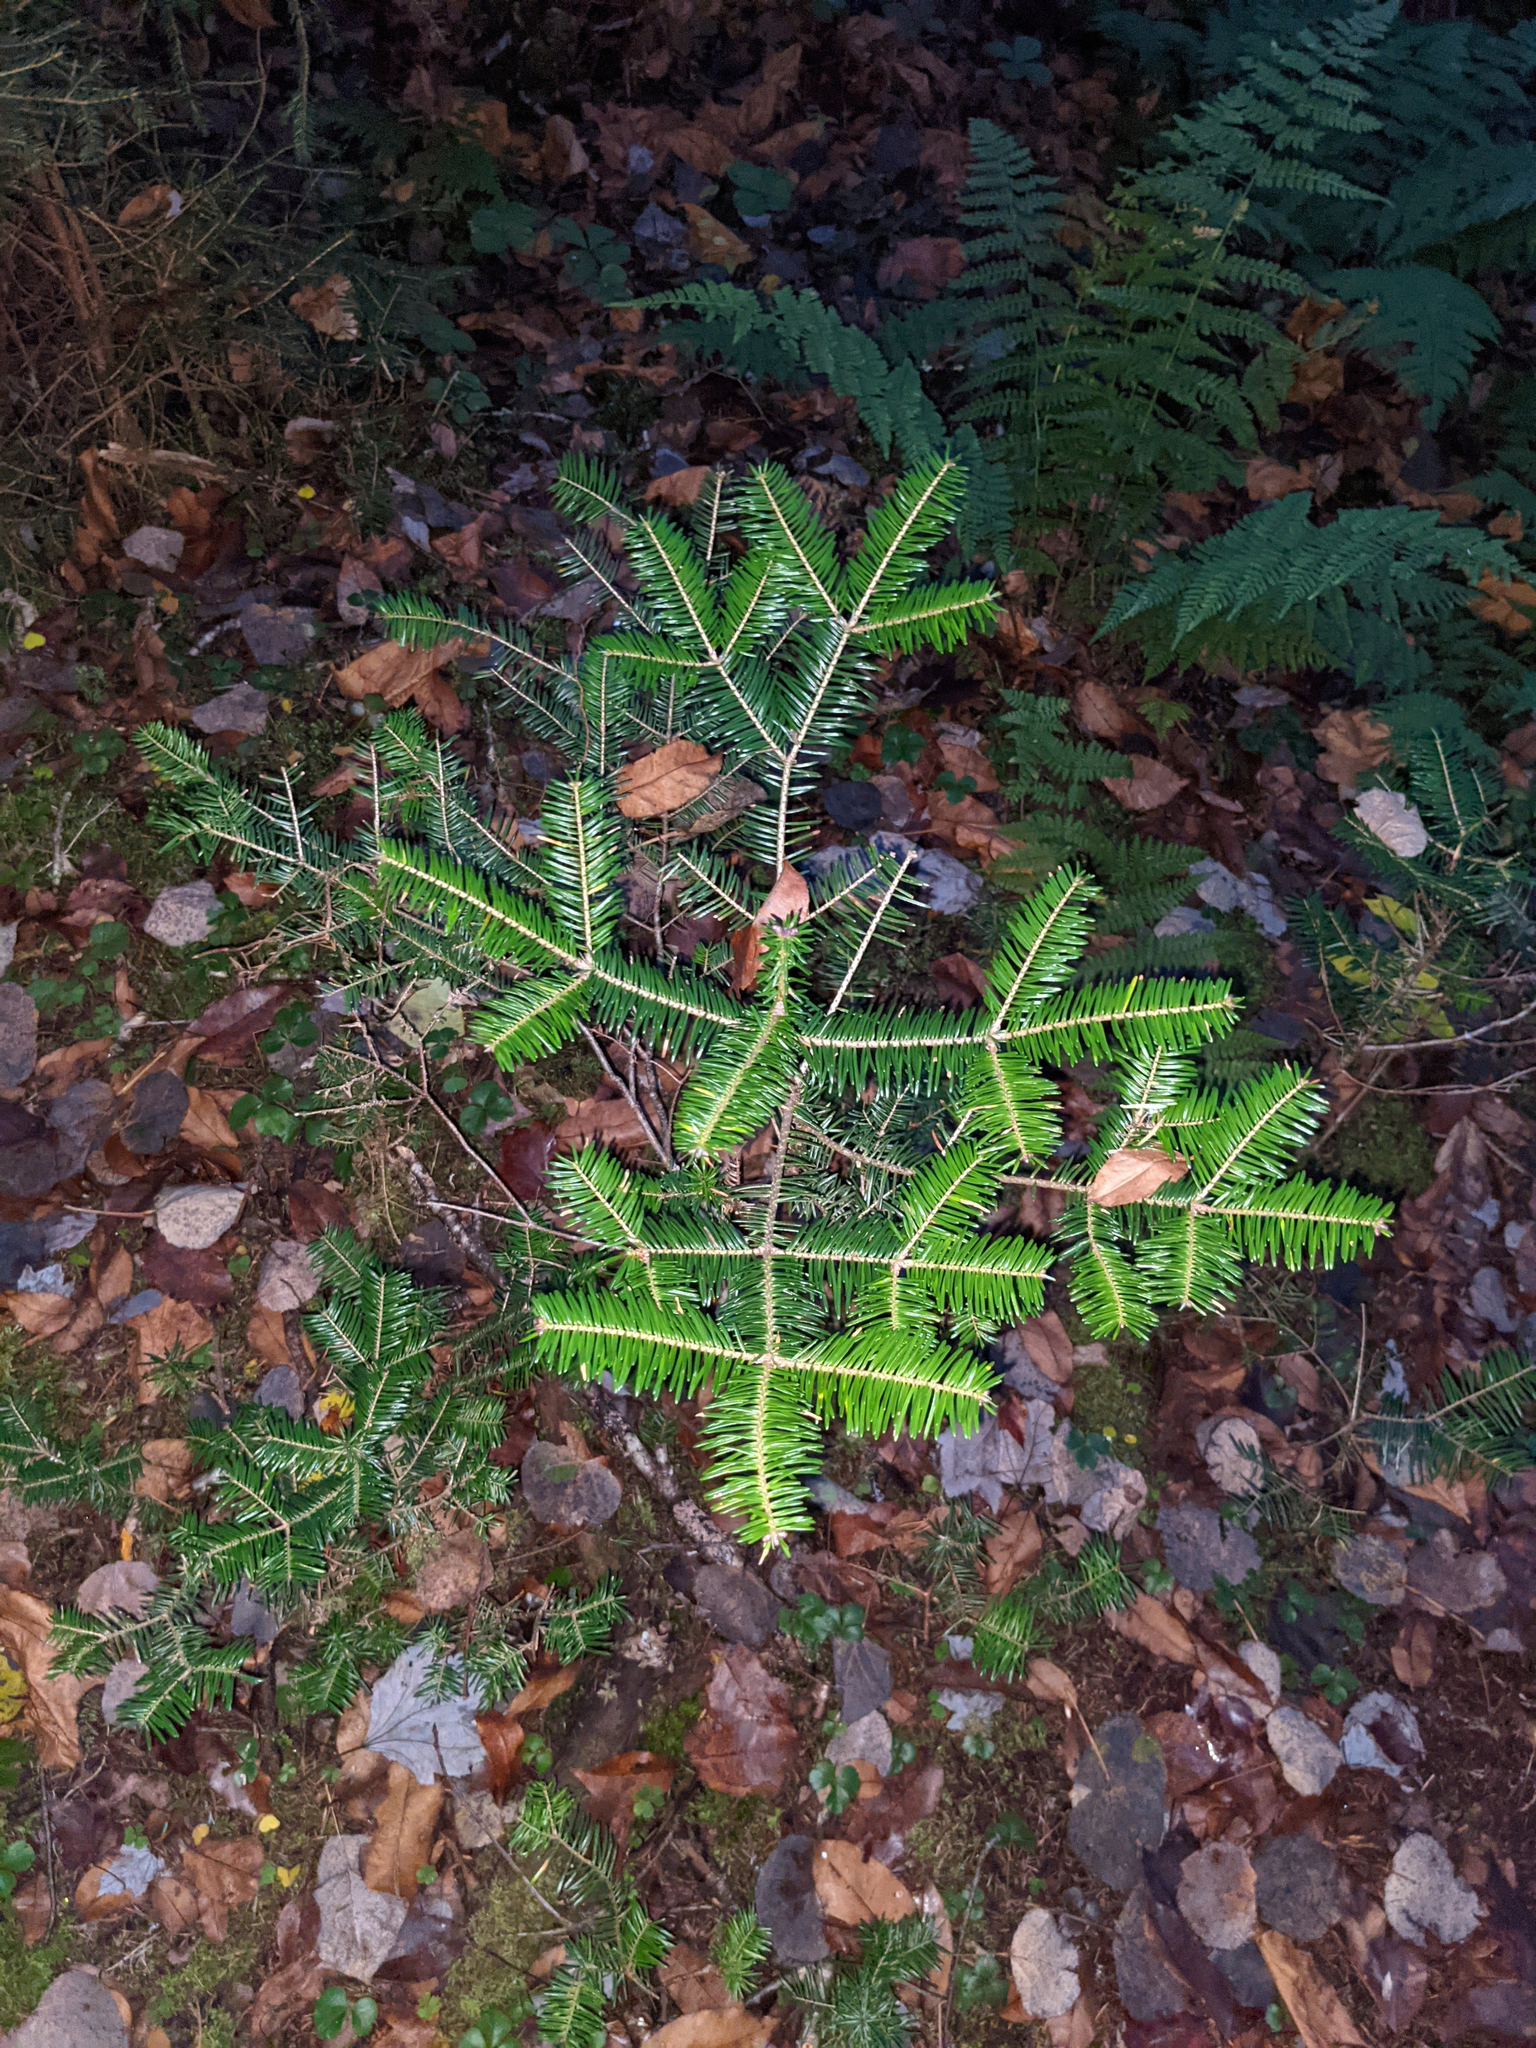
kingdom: Plantae
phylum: Tracheophyta
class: Pinopsida
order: Pinales
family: Pinaceae
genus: Abies
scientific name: Abies balsamea
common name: Balsam fir
